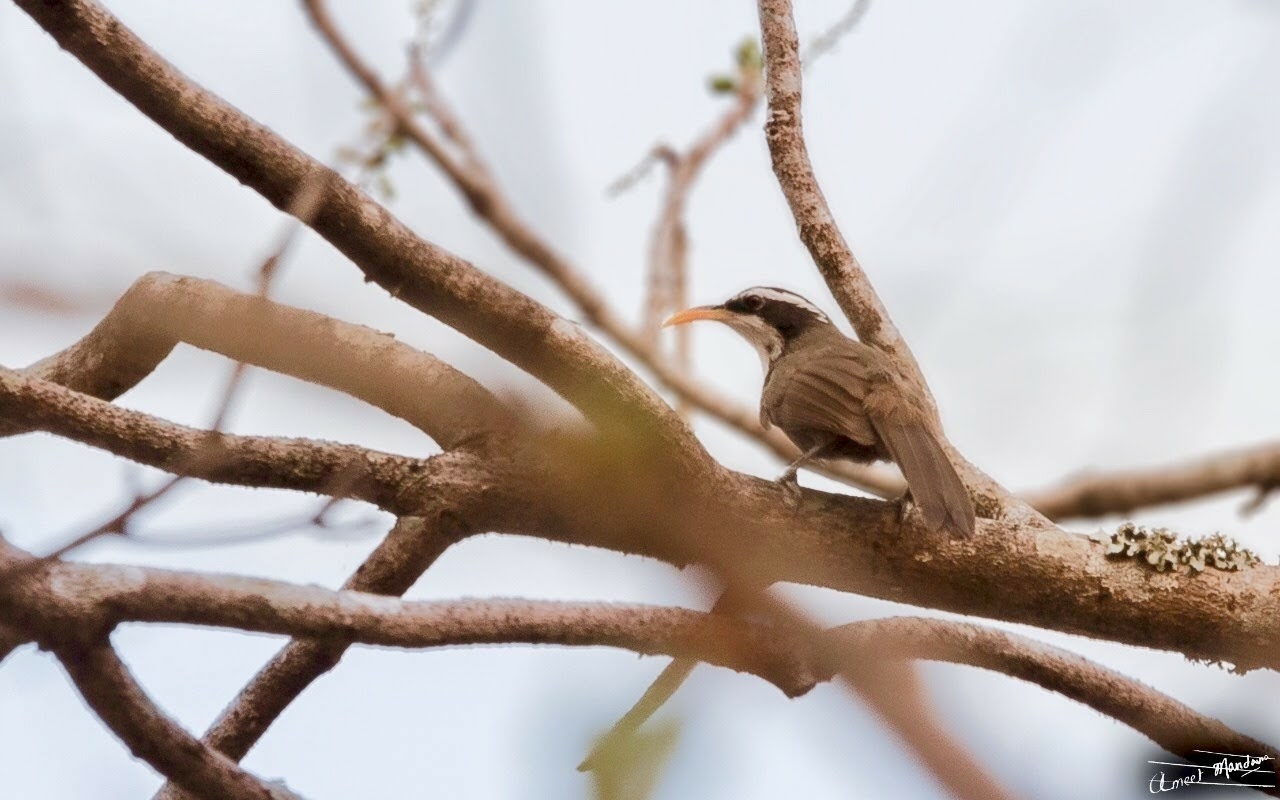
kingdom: Animalia
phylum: Chordata
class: Aves
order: Passeriformes
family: Timaliidae
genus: Pomatorhinus
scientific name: Pomatorhinus horsfieldii
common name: Indian scimitar babbler
